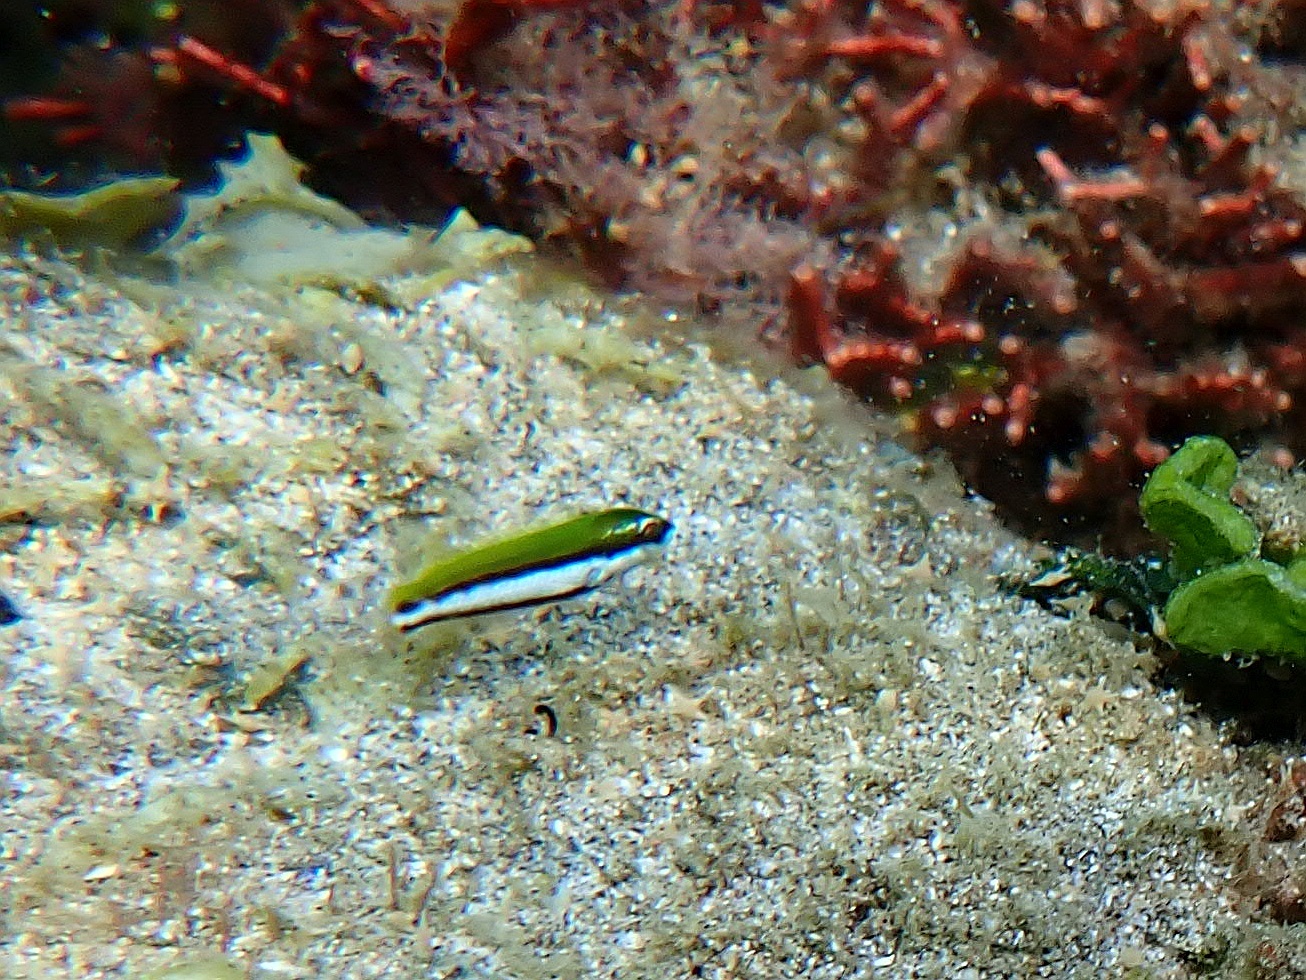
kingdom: Animalia
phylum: Chordata
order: Perciformes
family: Labridae
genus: Gomphosus
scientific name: Gomphosus varius
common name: Bird wrasse
